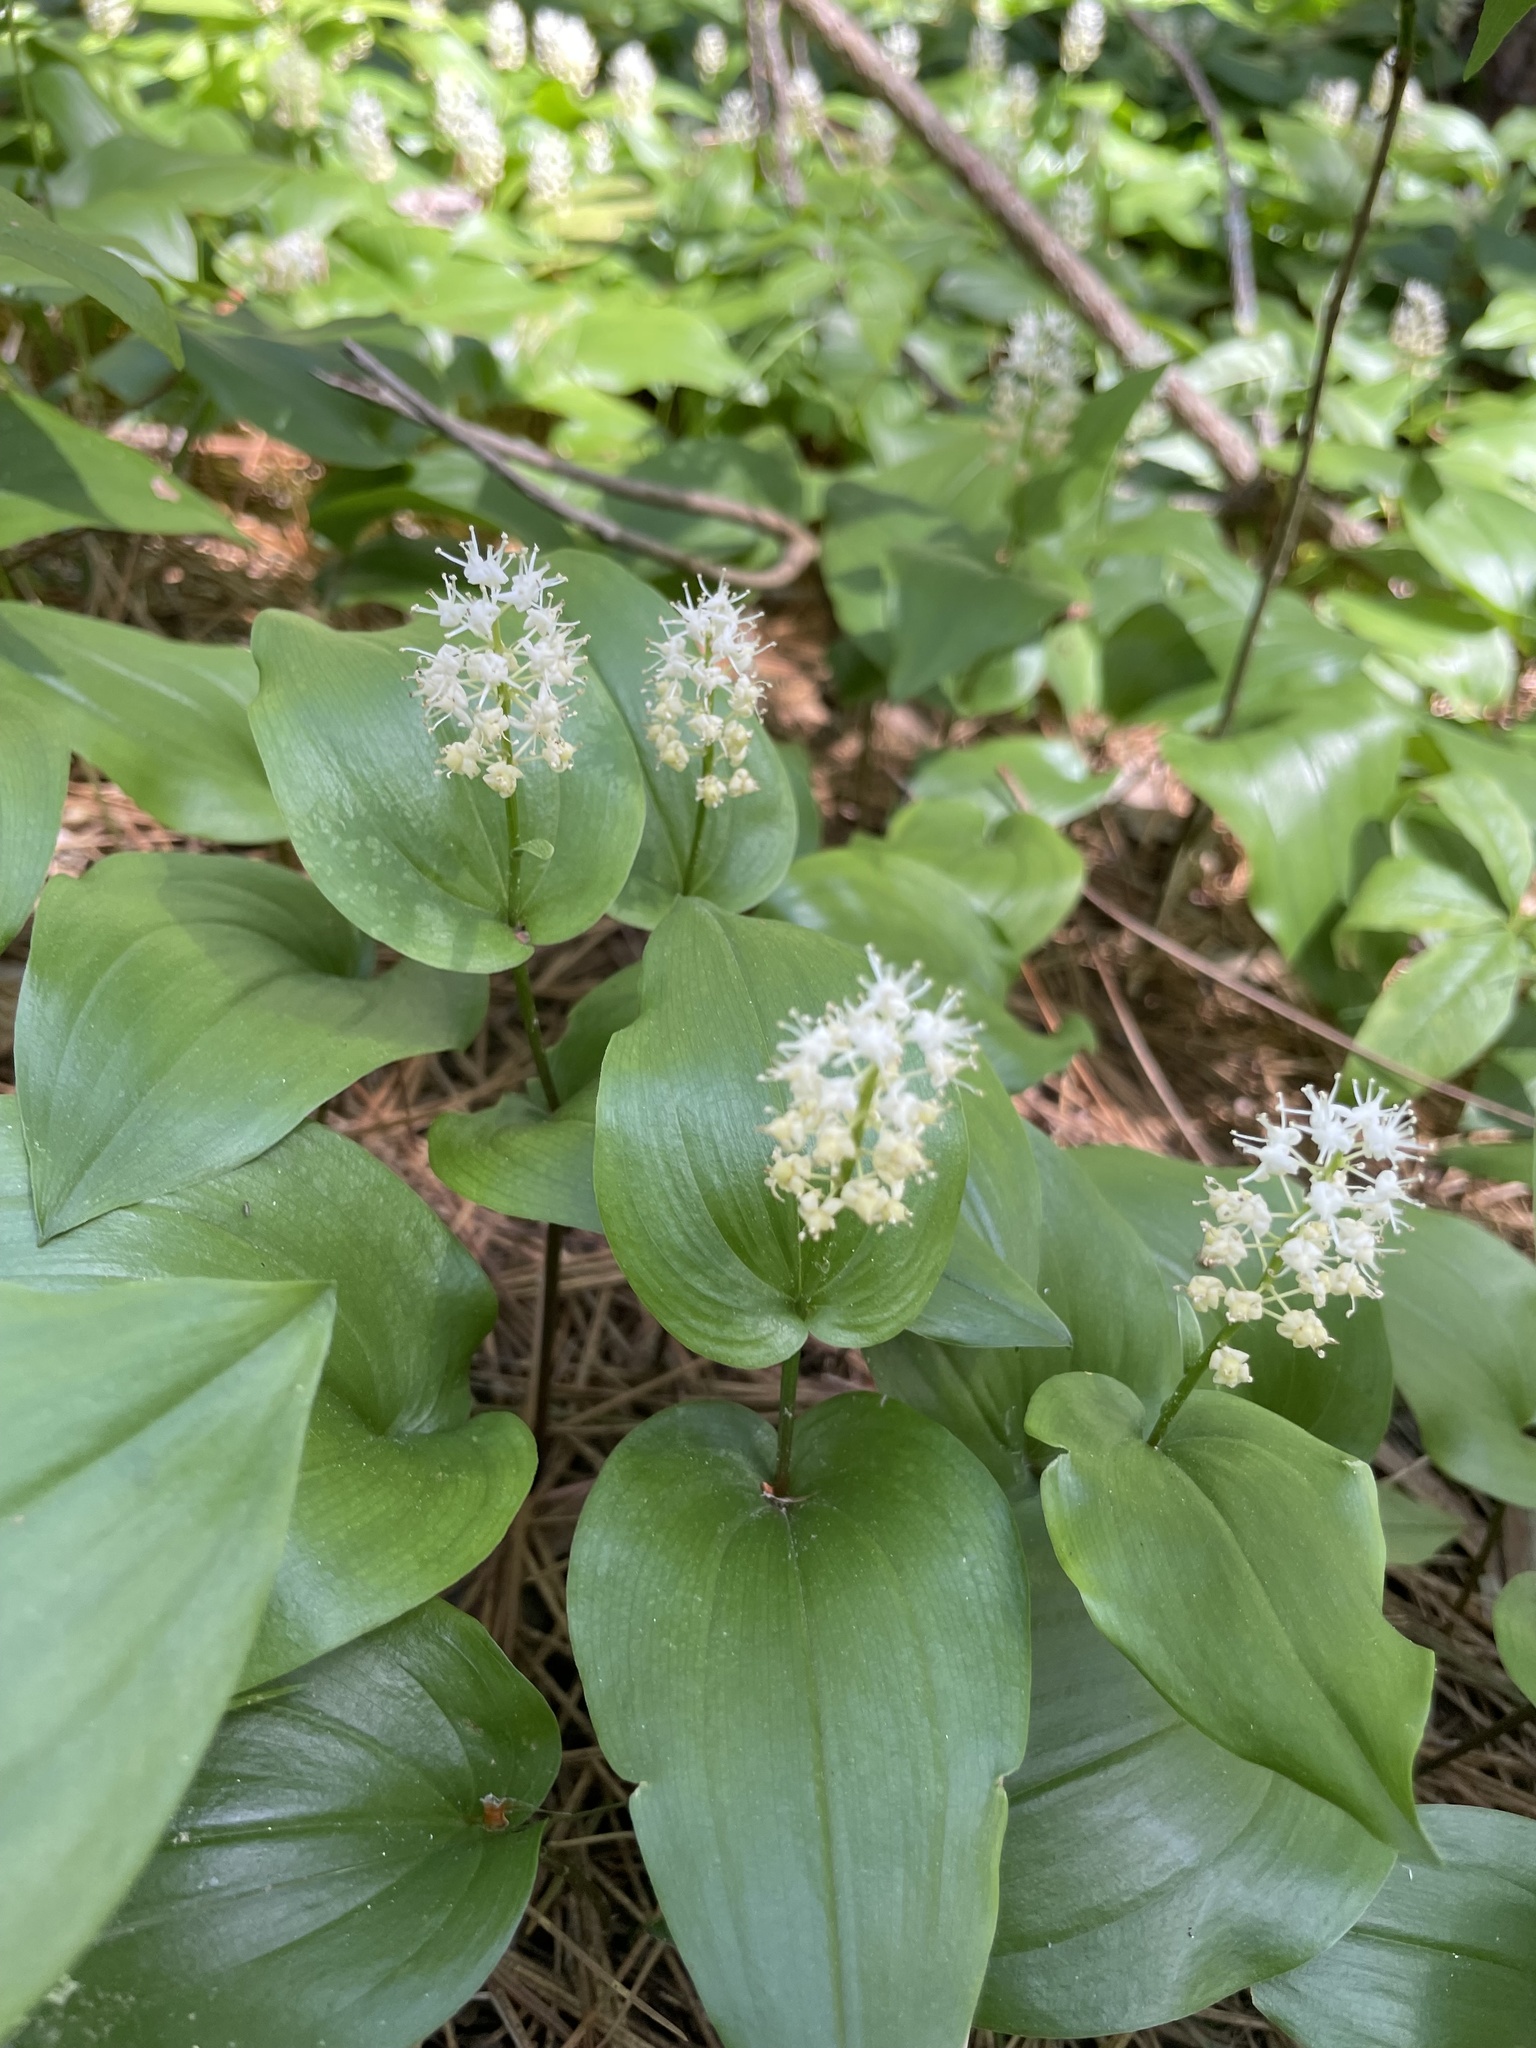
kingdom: Plantae
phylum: Tracheophyta
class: Liliopsida
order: Asparagales
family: Asparagaceae
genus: Maianthemum
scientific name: Maianthemum canadense
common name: False lily-of-the-valley
